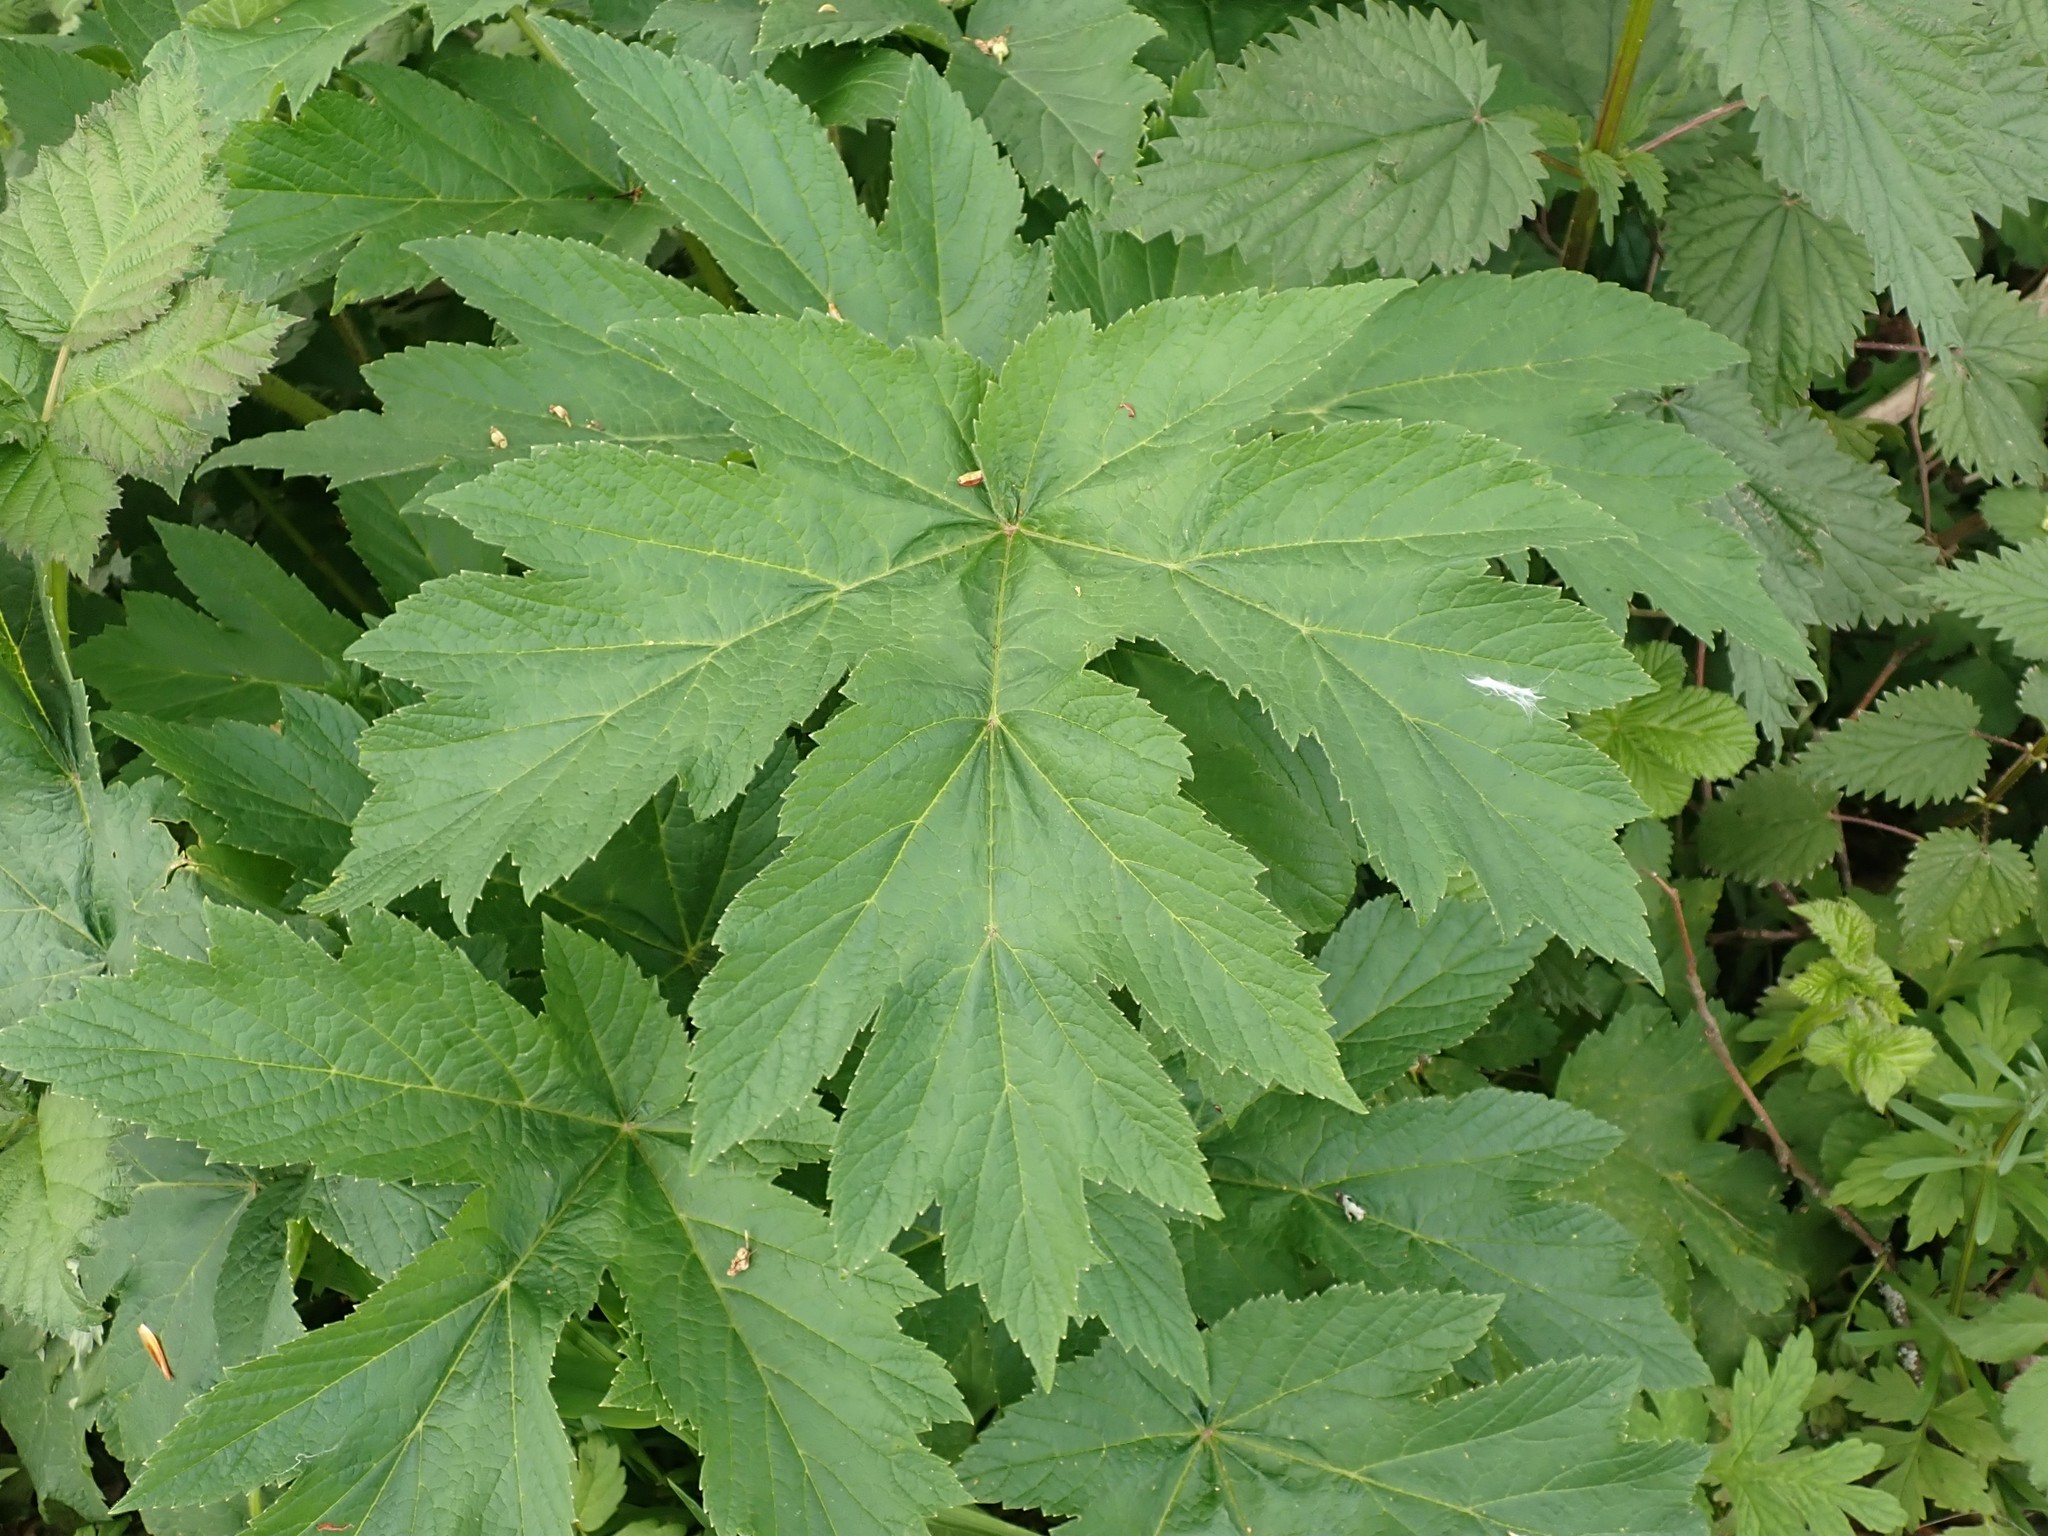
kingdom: Plantae
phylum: Tracheophyta
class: Magnoliopsida
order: Apiales
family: Apiaceae
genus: Heracleum
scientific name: Heracleum maximum
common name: American cow parsnip
